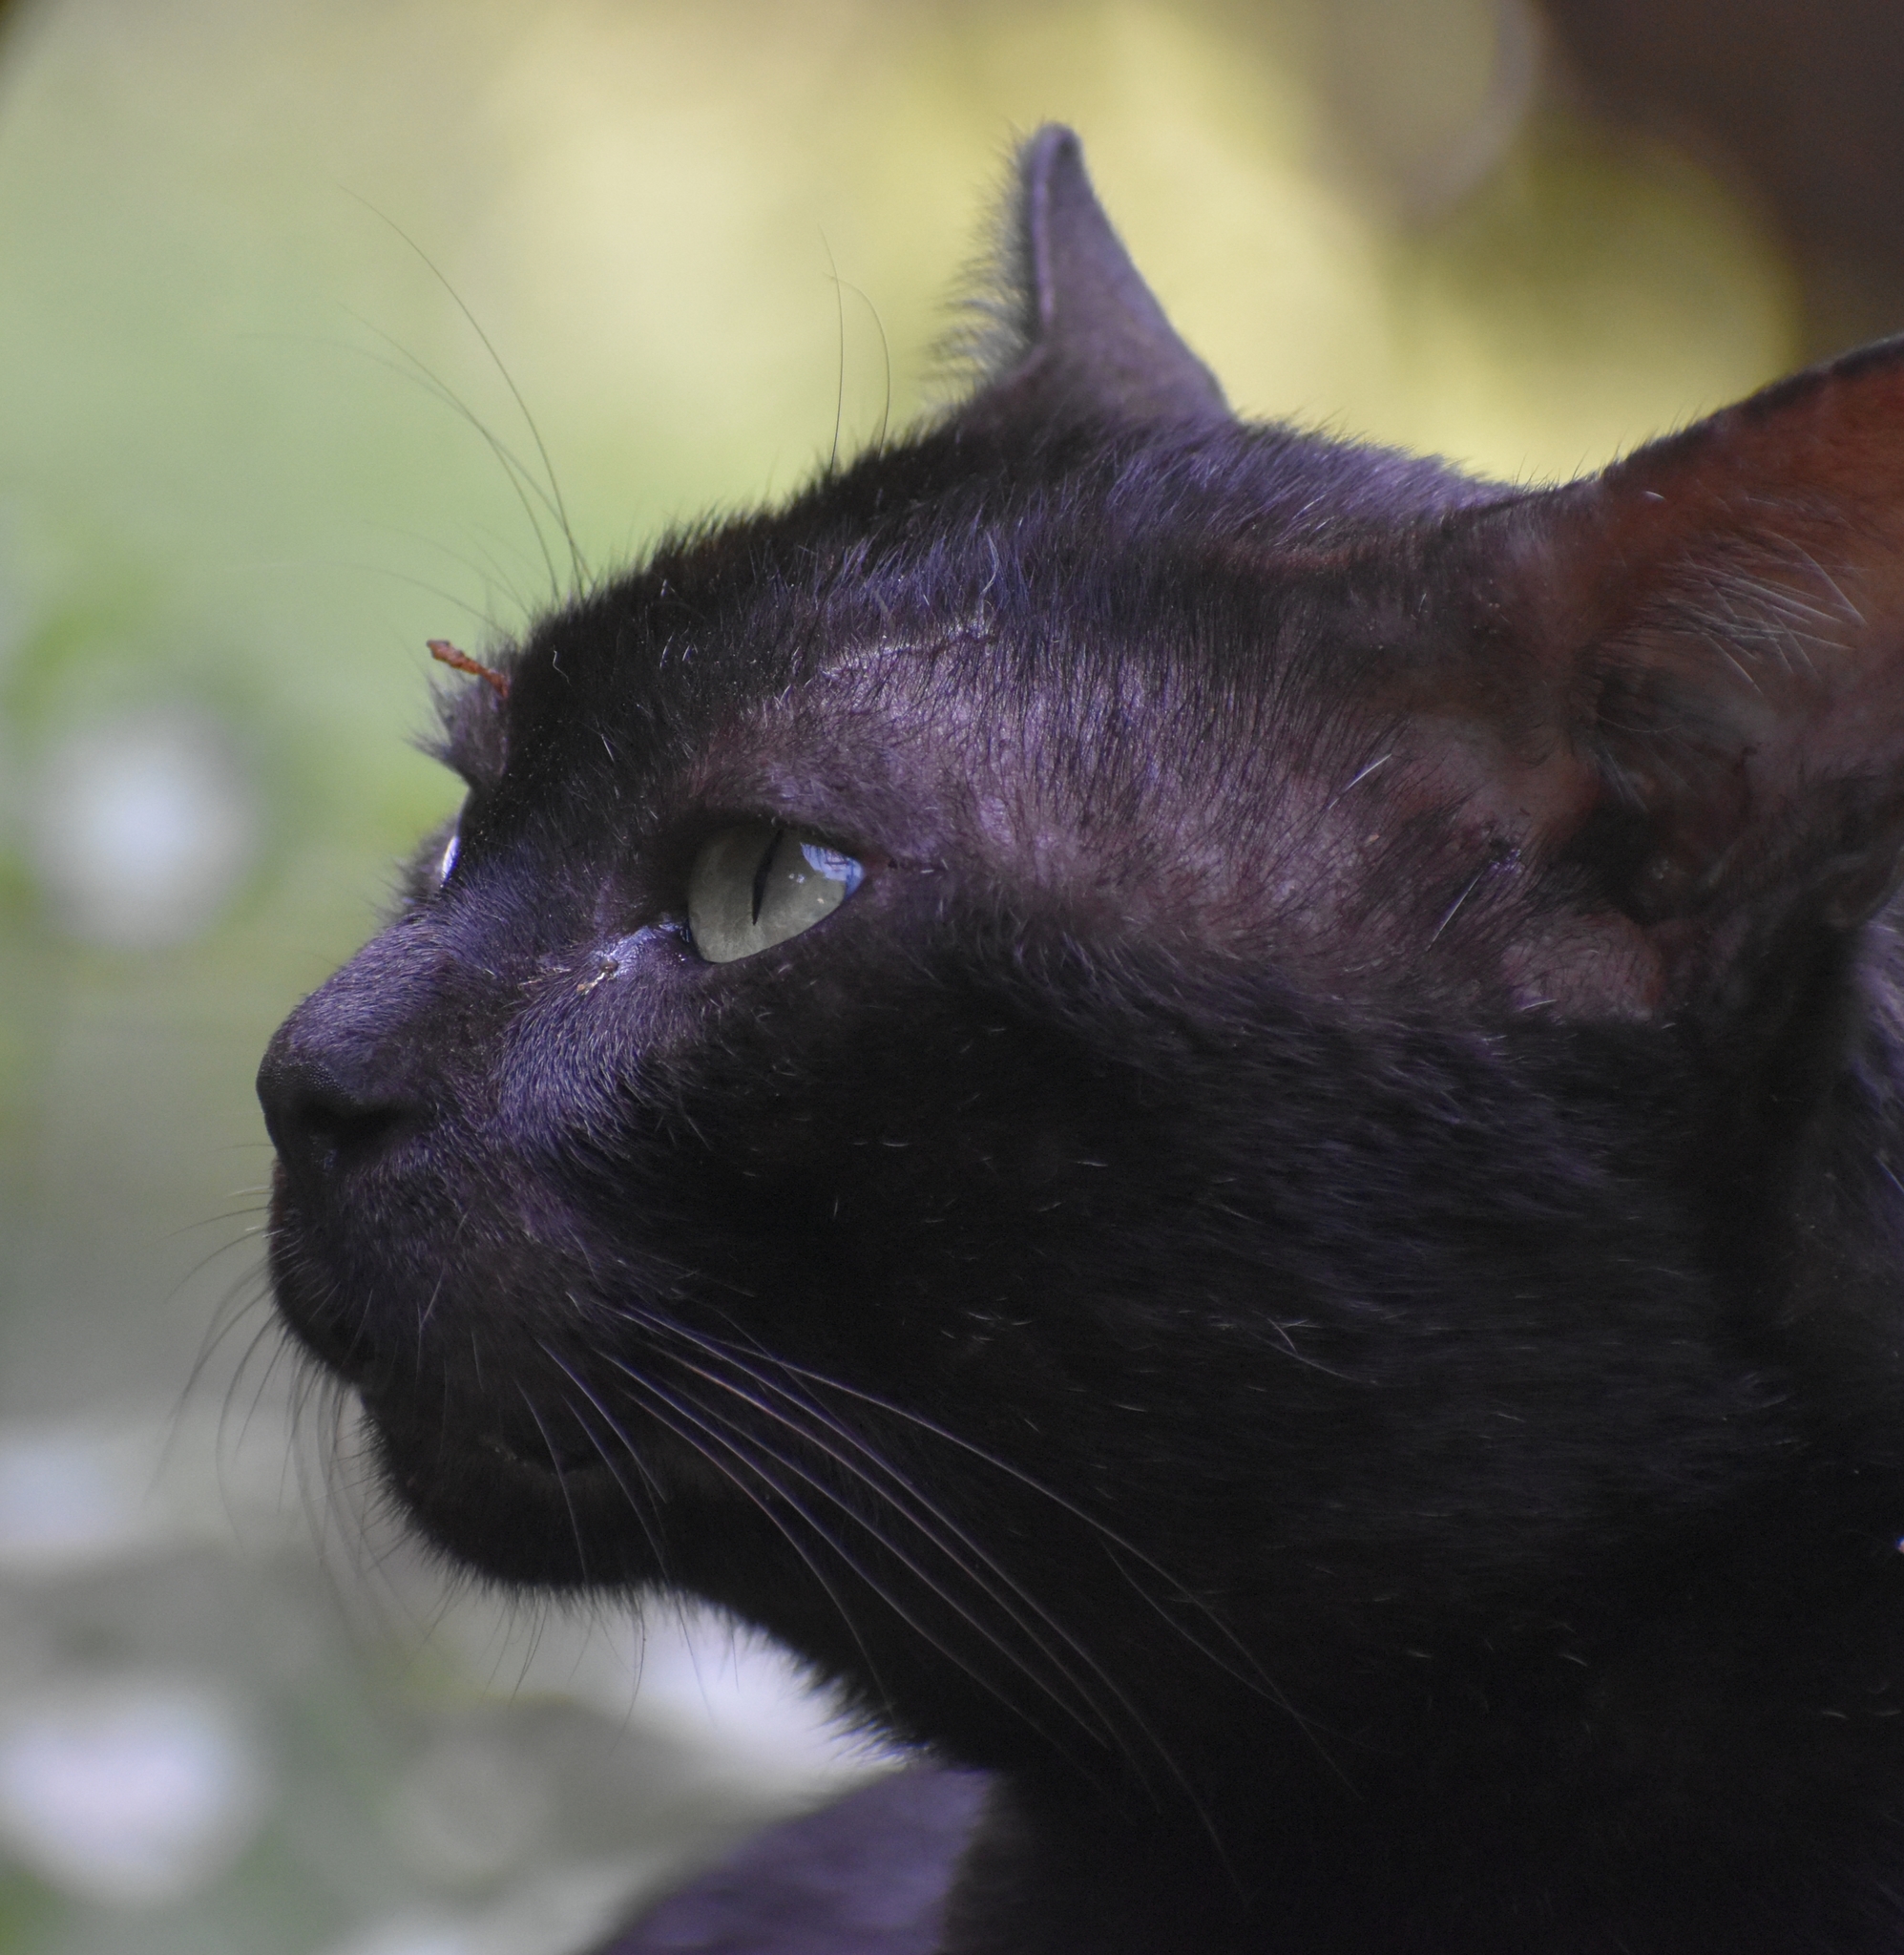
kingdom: Animalia
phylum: Chordata
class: Mammalia
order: Carnivora
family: Felidae
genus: Felis
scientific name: Felis catus
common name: Domestic cat
